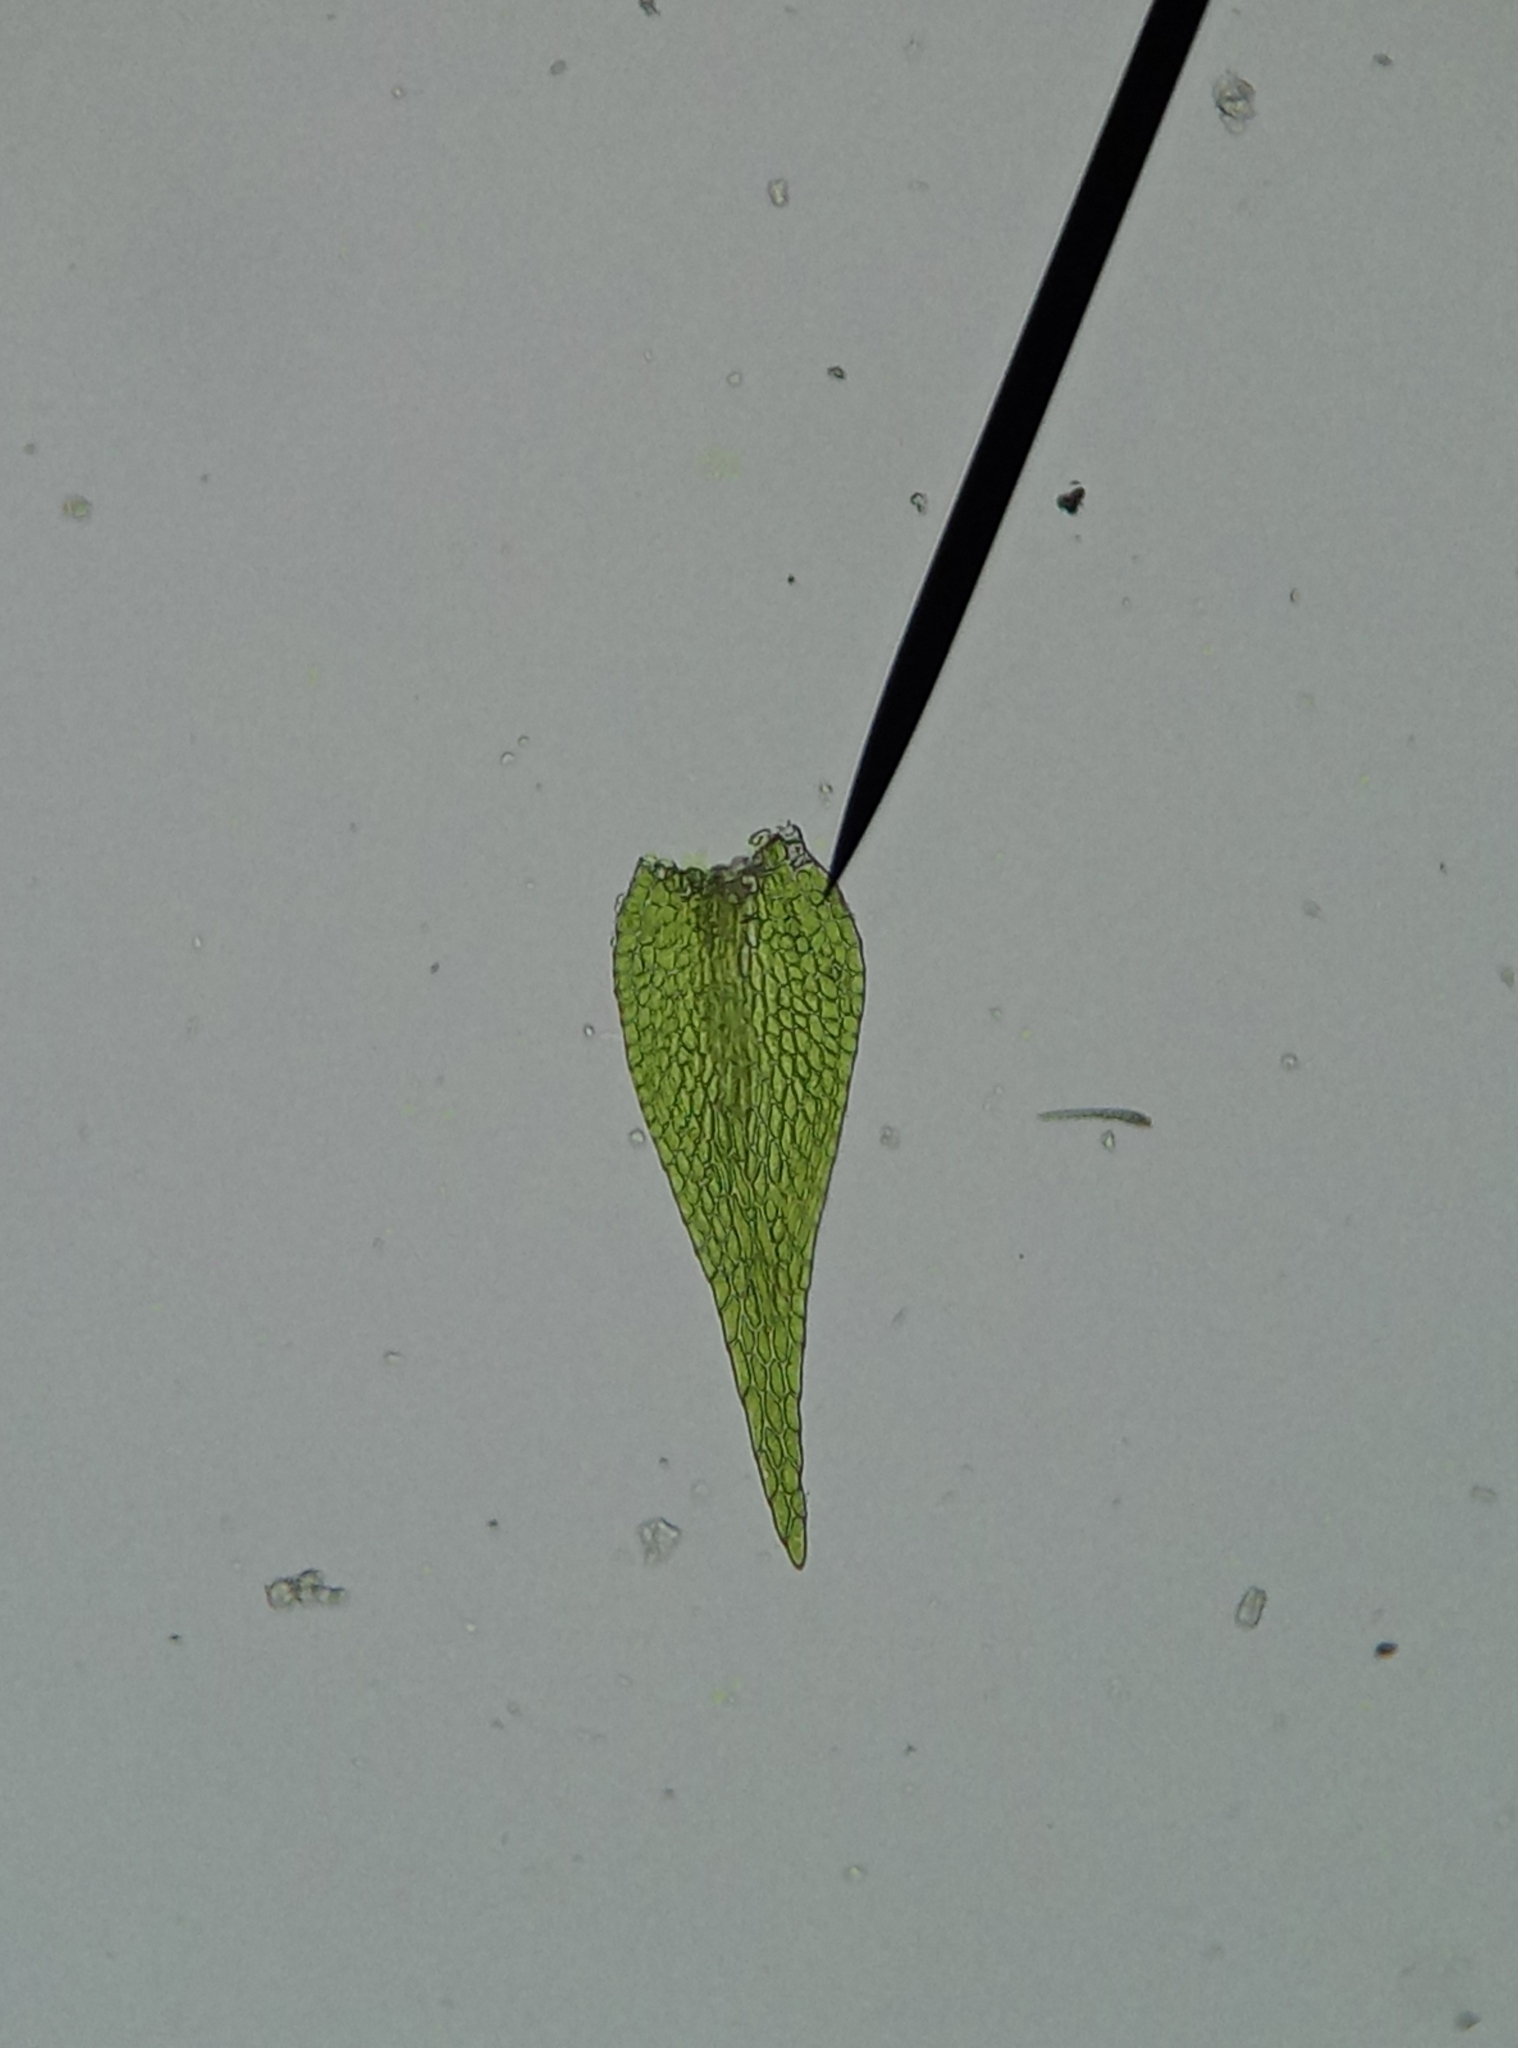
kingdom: Plantae
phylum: Bryophyta
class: Bryopsida
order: Hypnales
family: Amblystegiaceae
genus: Amblystegium
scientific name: Amblystegium serpens
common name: Jurkatzka's feather moss
